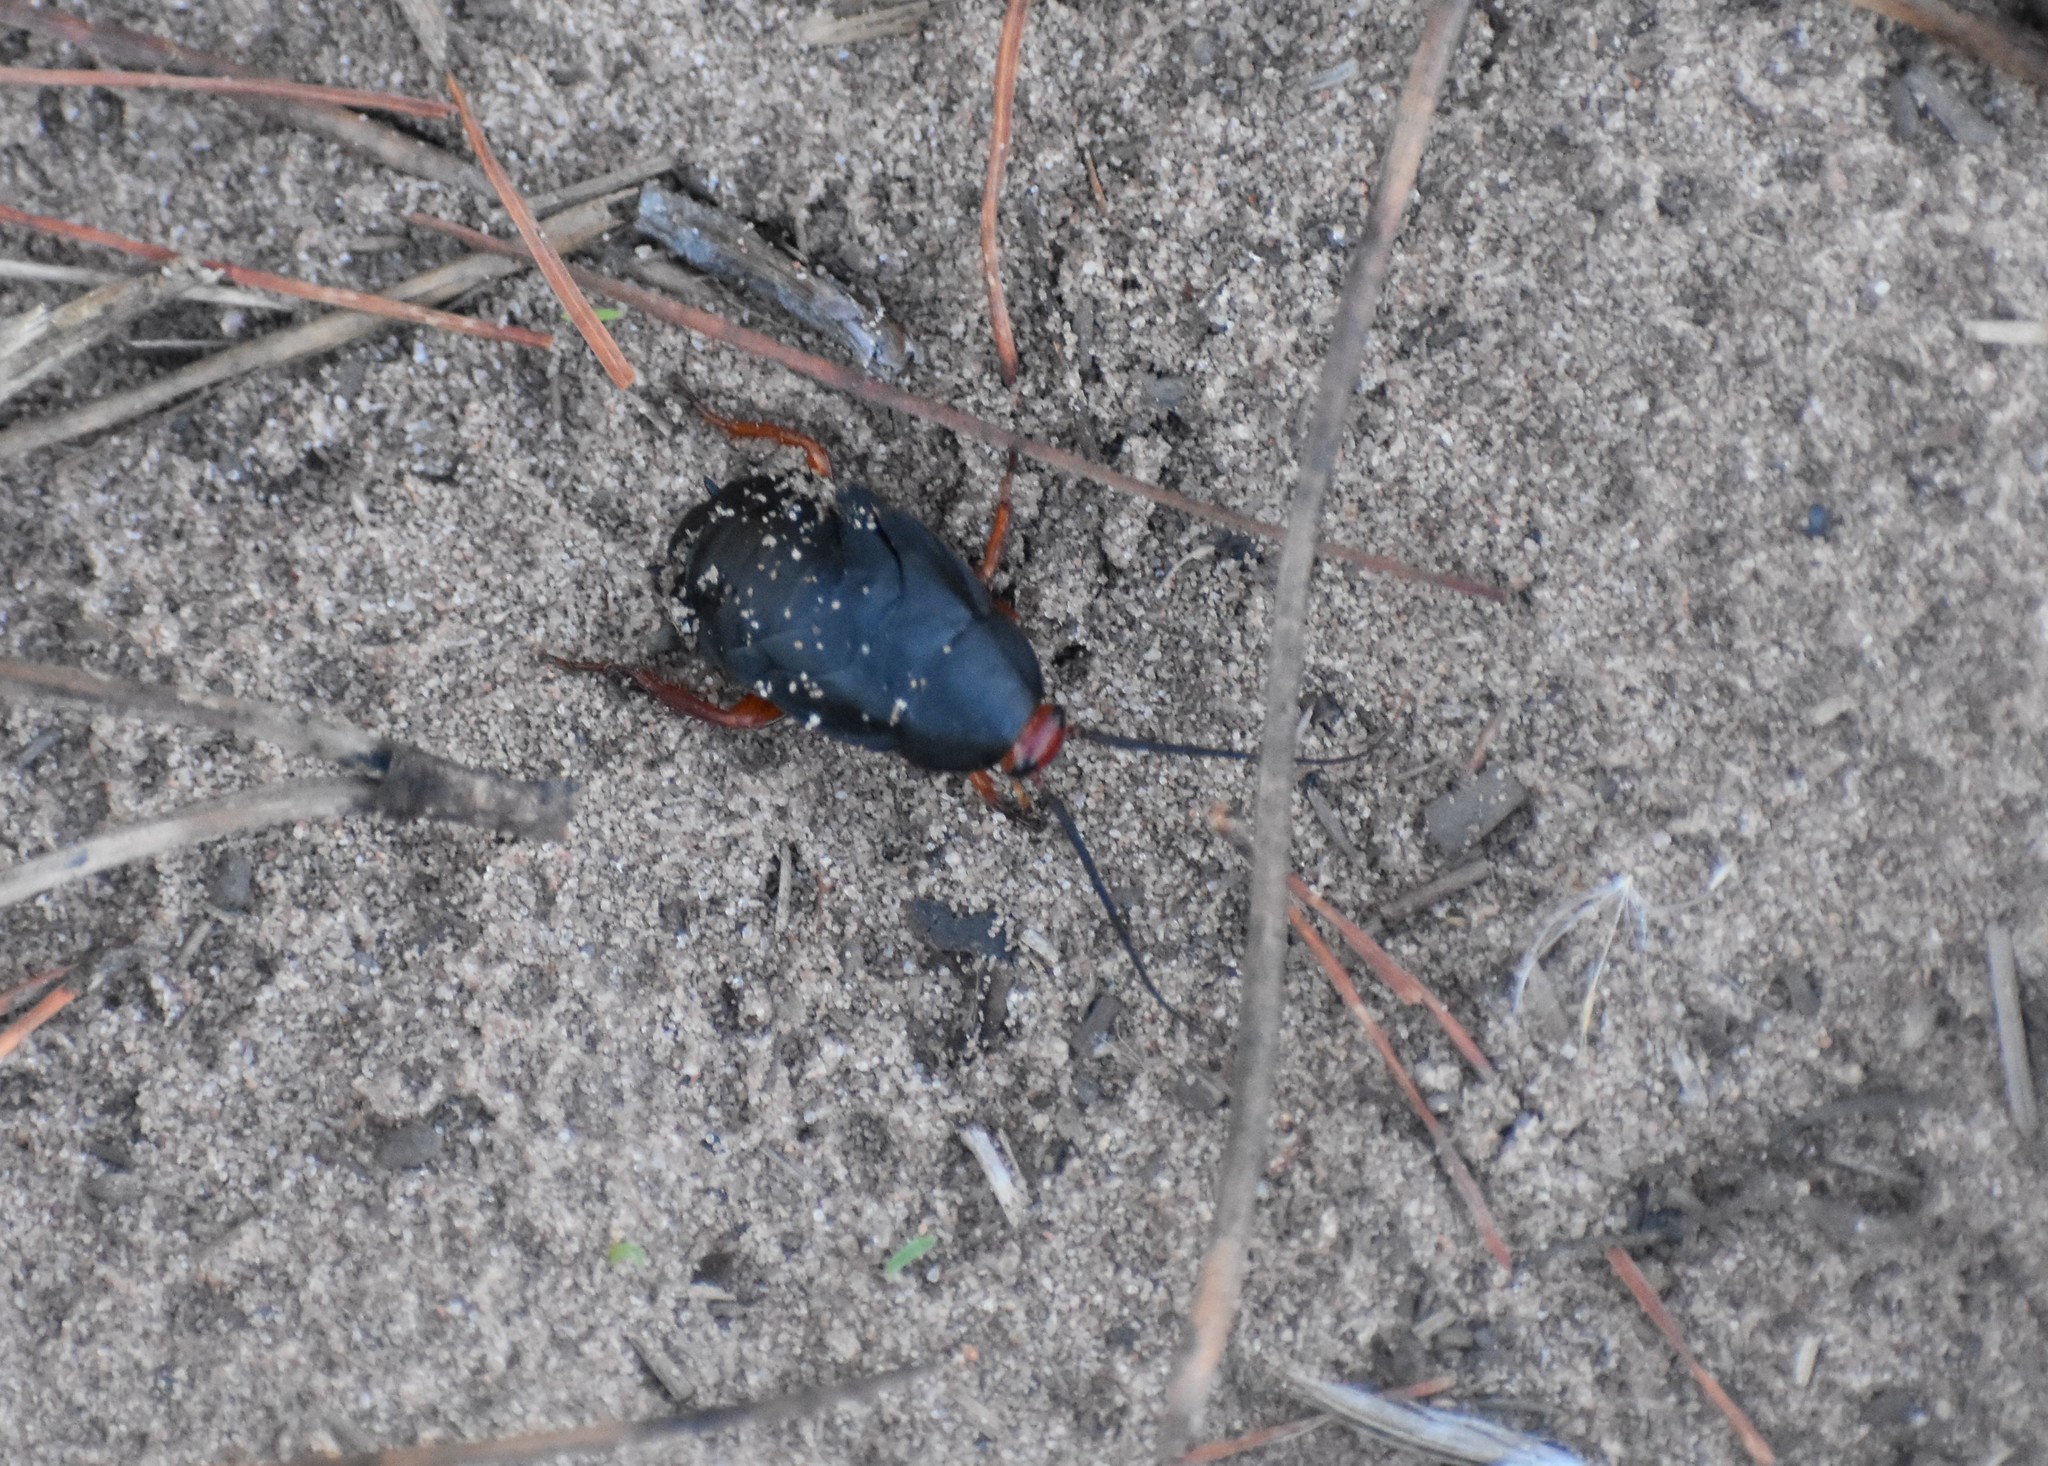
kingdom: Animalia
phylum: Arthropoda
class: Insecta
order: Blattodea
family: Blattidae
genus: Deropeltis
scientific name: Deropeltis erythrocephala
